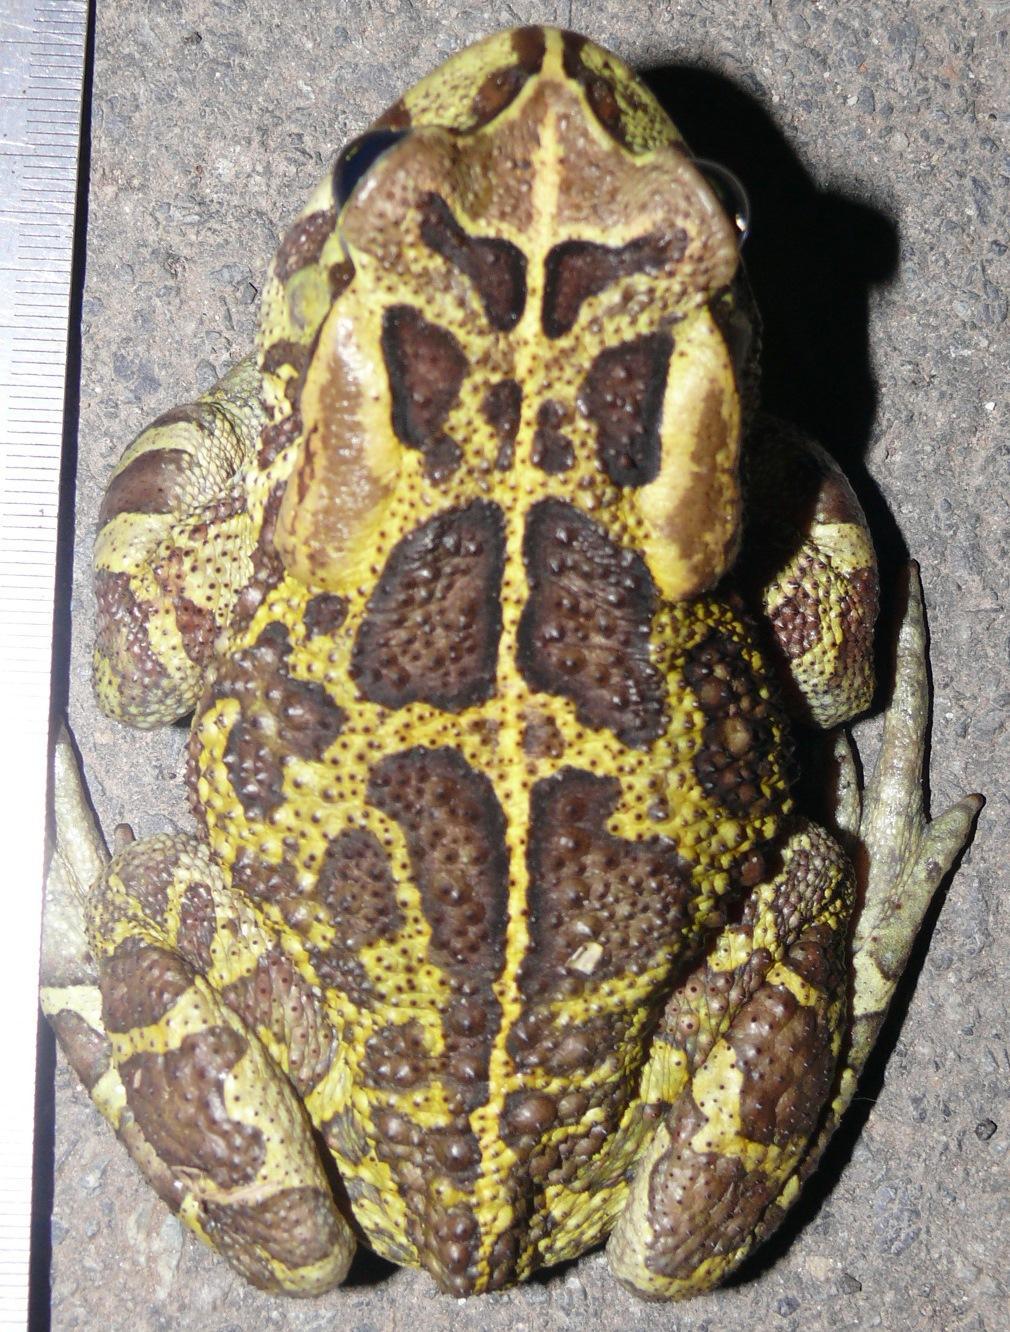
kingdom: Animalia
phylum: Chordata
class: Amphibia
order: Anura
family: Bufonidae
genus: Sclerophrys
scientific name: Sclerophrys pantherina
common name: Panther toad
